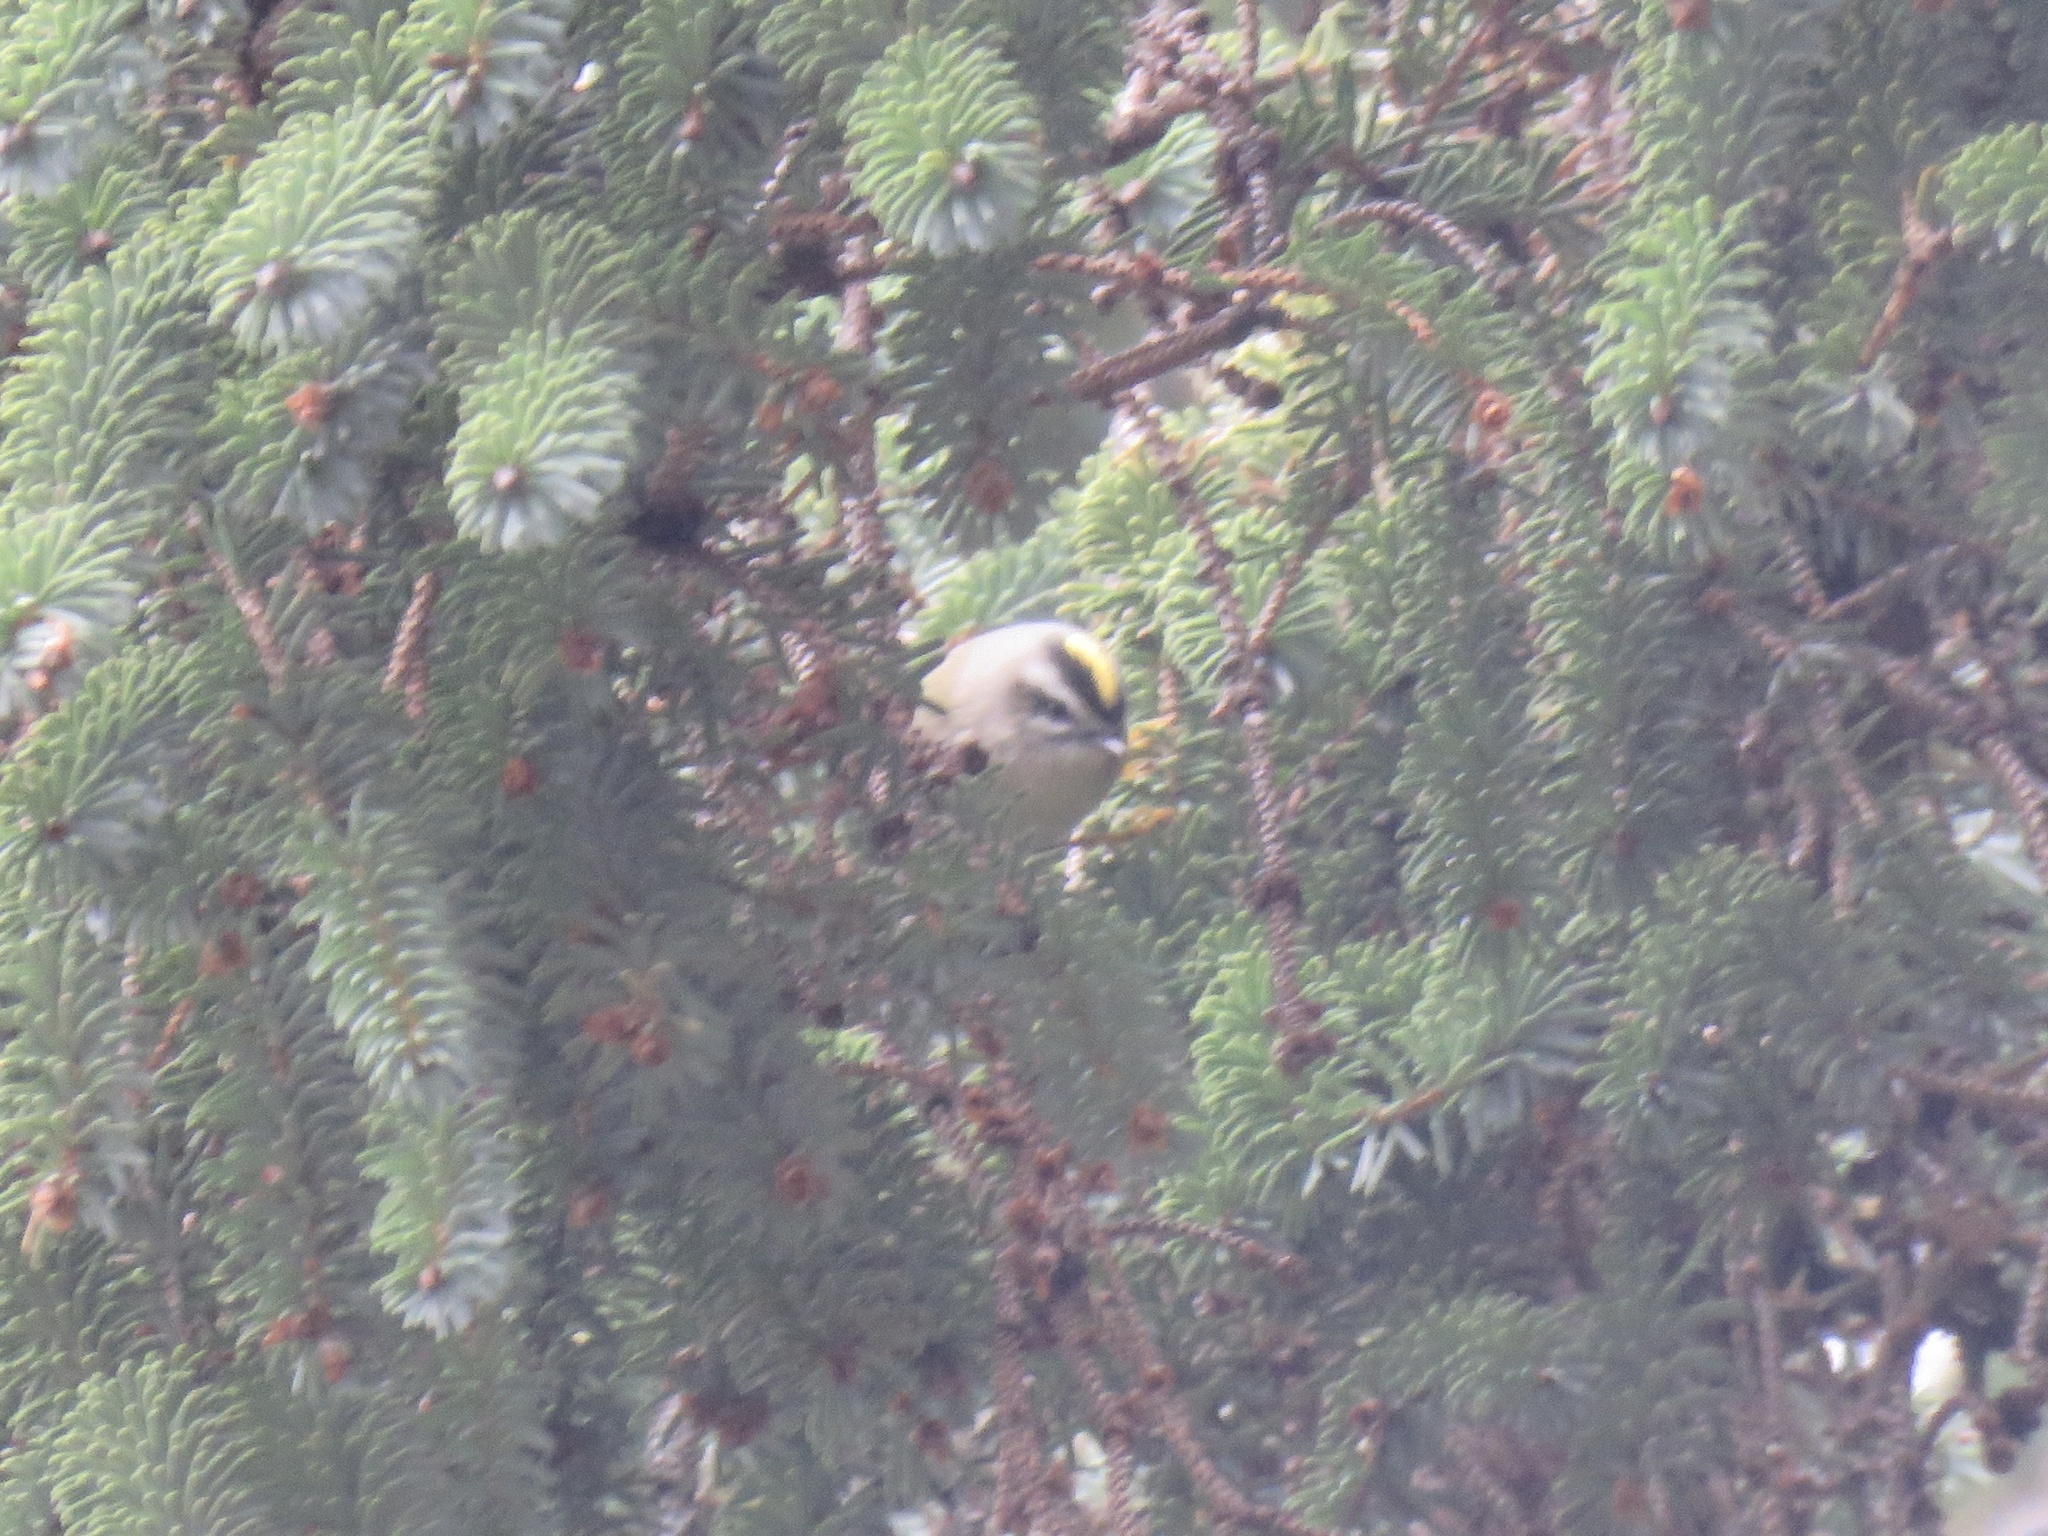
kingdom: Animalia
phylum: Chordata
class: Aves
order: Passeriformes
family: Regulidae
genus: Regulus
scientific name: Regulus satrapa
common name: Golden-crowned kinglet
